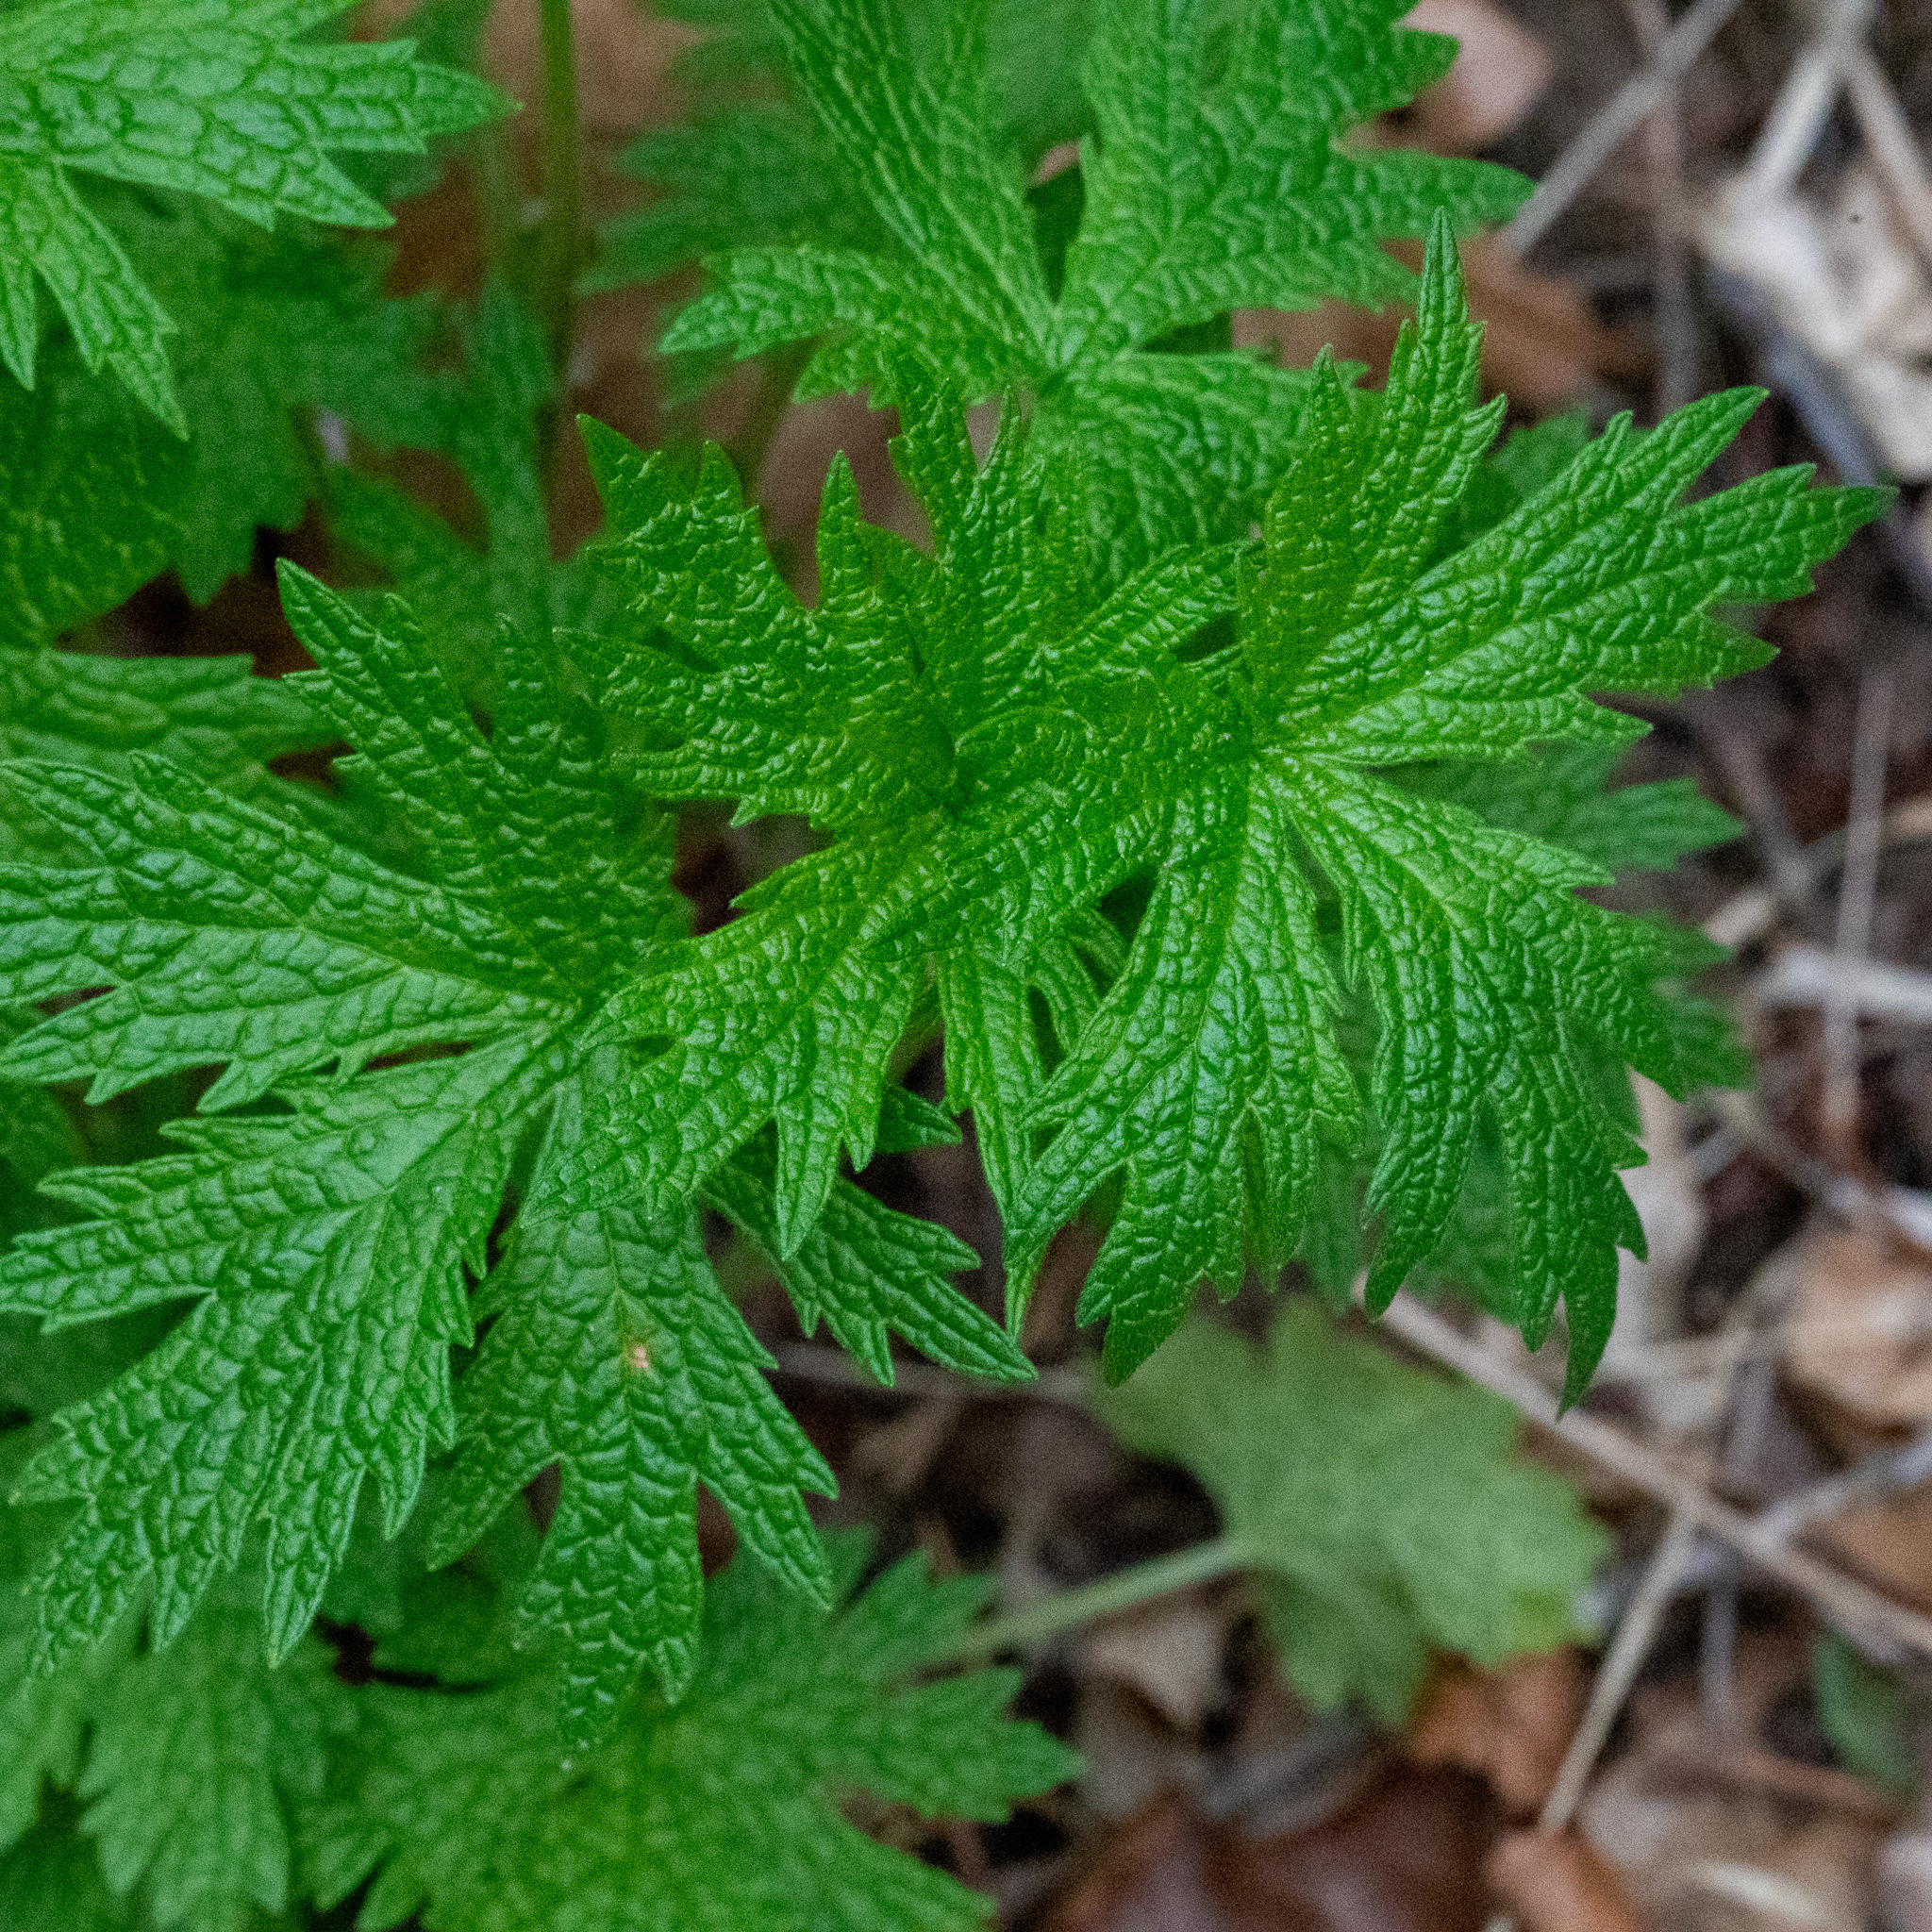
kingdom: Plantae
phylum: Tracheophyta
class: Magnoliopsida
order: Lamiales
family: Lamiaceae
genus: Leonurus
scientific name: Leonurus cardiaca
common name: Motherwort
